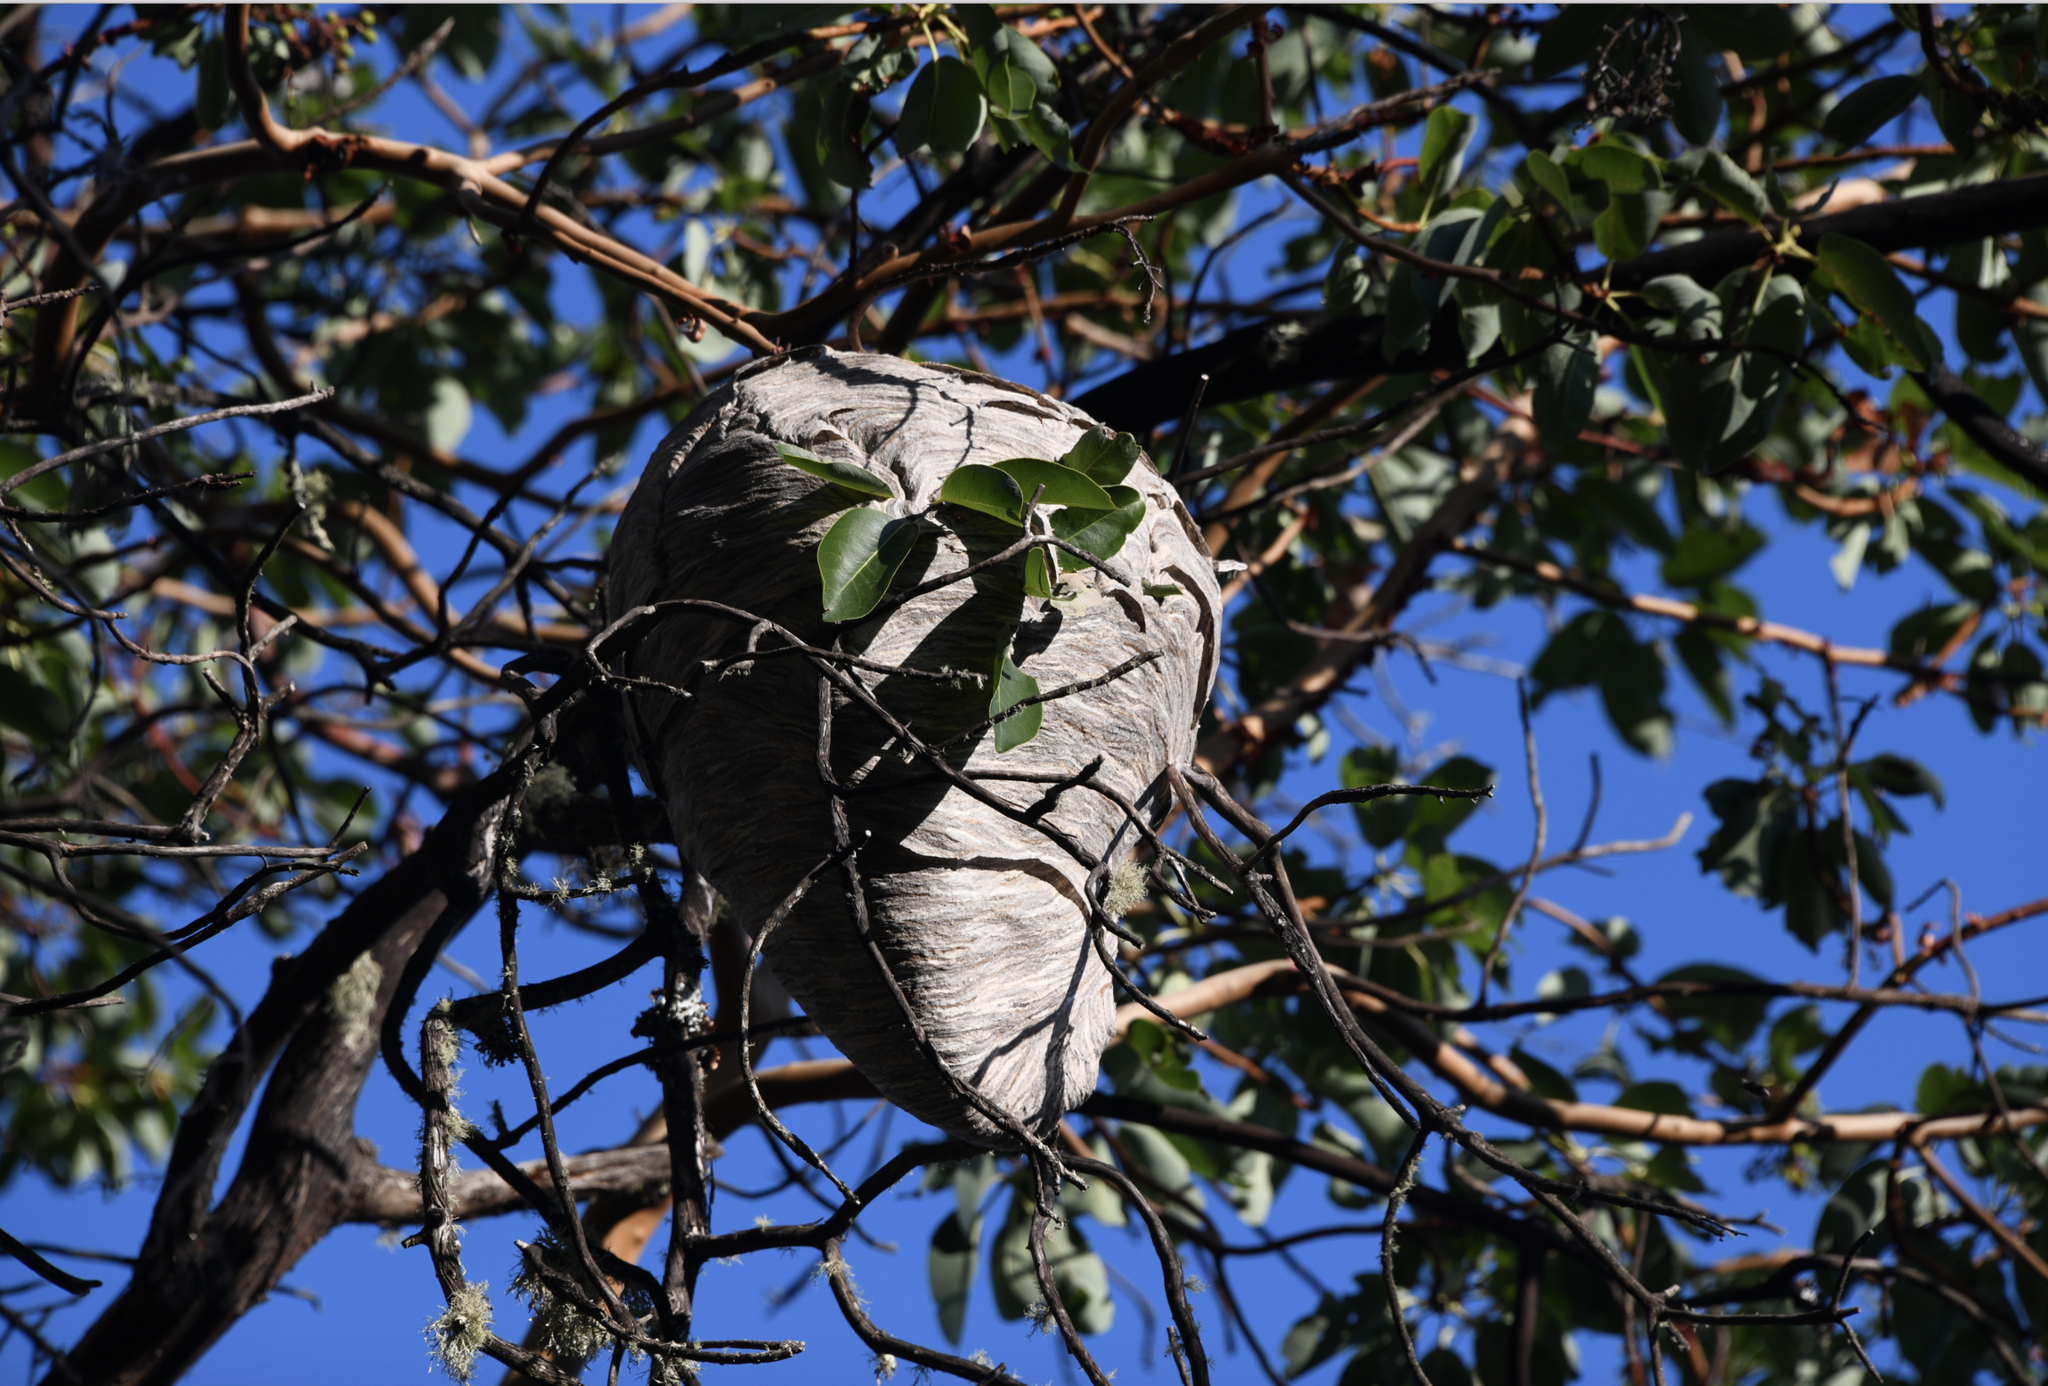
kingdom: Animalia
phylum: Arthropoda
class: Insecta
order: Hymenoptera
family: Vespidae
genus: Dolichovespula
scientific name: Dolichovespula
